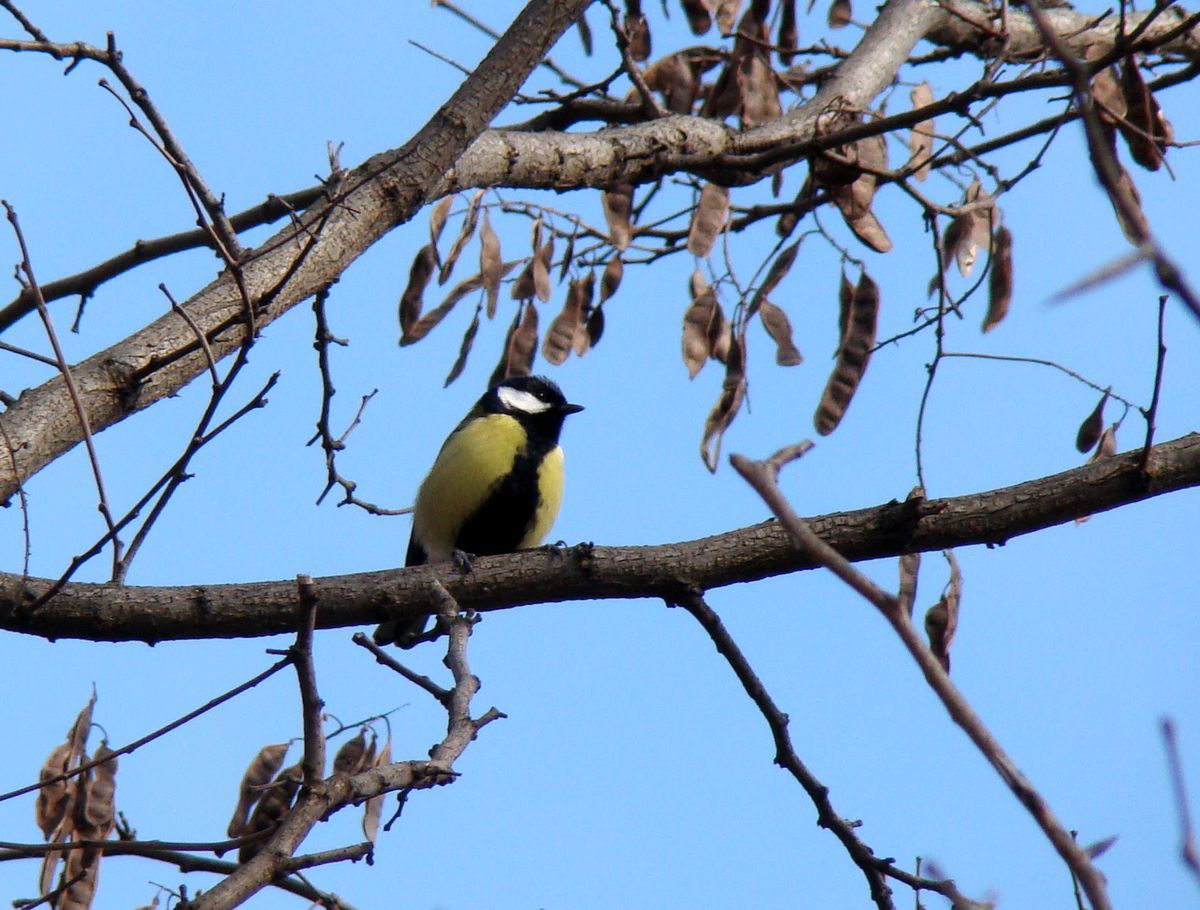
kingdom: Animalia
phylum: Chordata
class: Aves
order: Passeriformes
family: Paridae
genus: Parus
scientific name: Parus major
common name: Great tit
